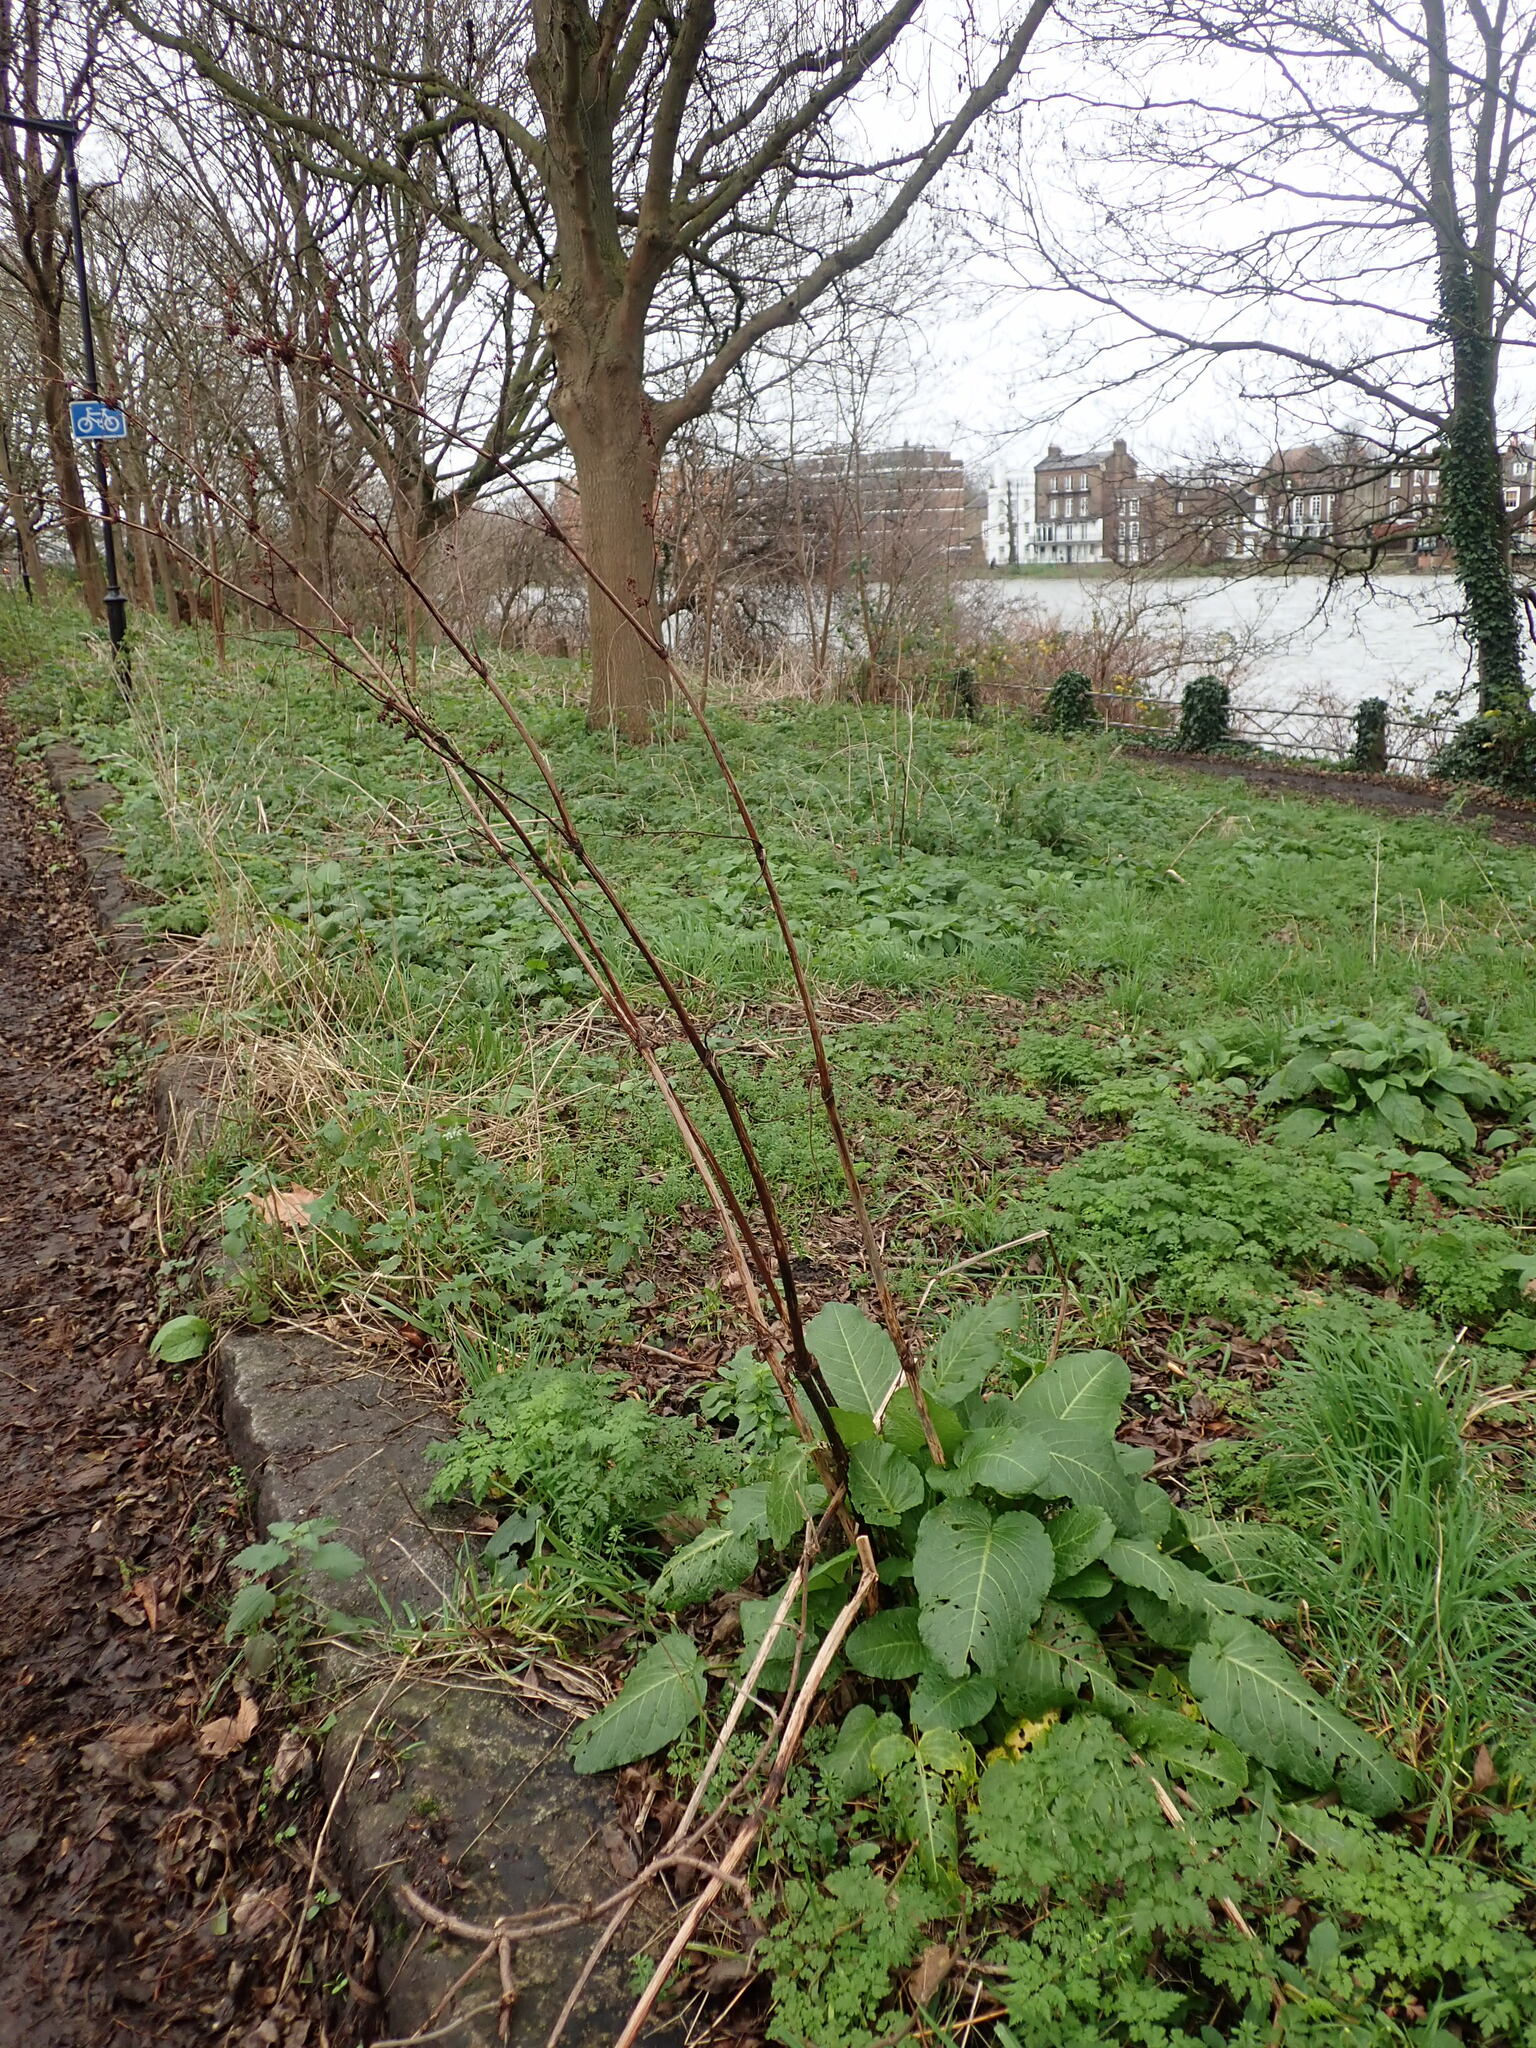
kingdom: Plantae
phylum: Tracheophyta
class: Magnoliopsida
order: Caryophyllales
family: Polygonaceae
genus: Rumex
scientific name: Rumex obtusifolius
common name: Bitter dock
